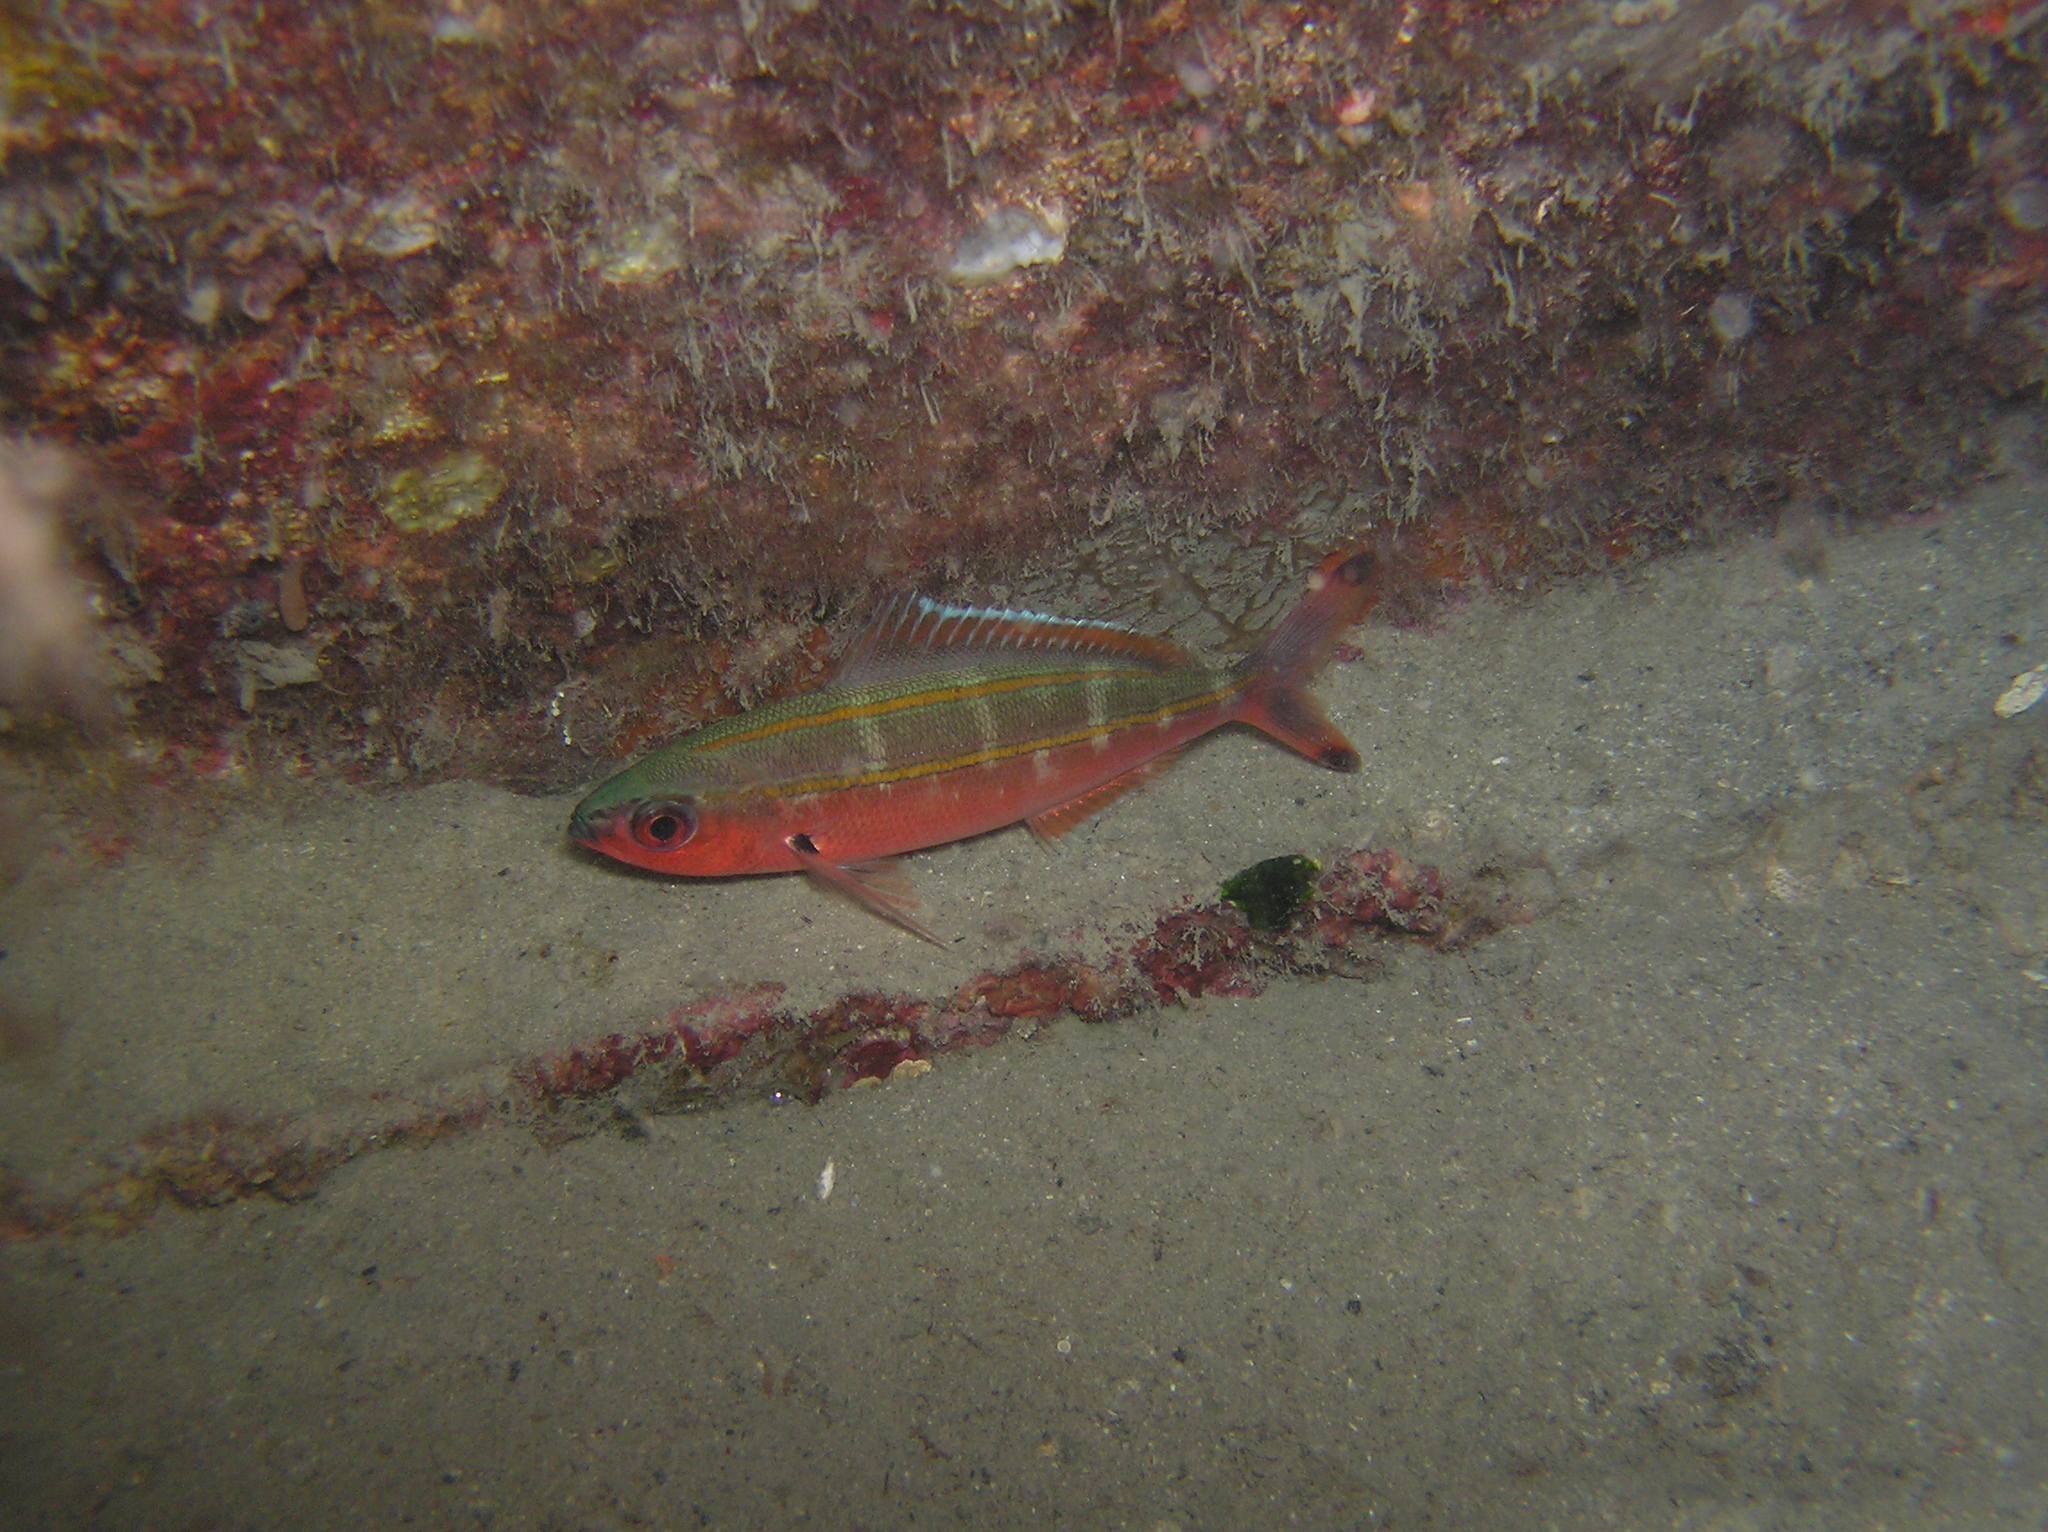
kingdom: Animalia
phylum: Chordata
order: Perciformes
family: Caesionidae
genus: Pterocaesio
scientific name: Pterocaesio digramma
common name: Double-lined fusilier
